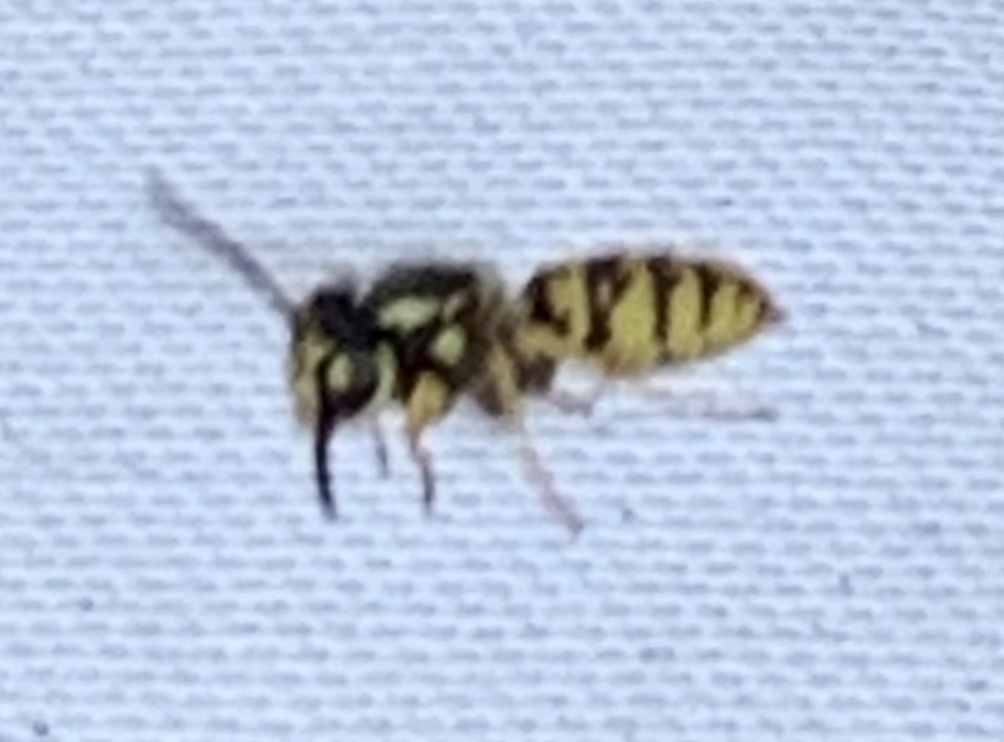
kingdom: Animalia
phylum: Arthropoda
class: Insecta
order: Hymenoptera
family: Vespidae
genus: Vespula
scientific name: Vespula germanica
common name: German wasp
